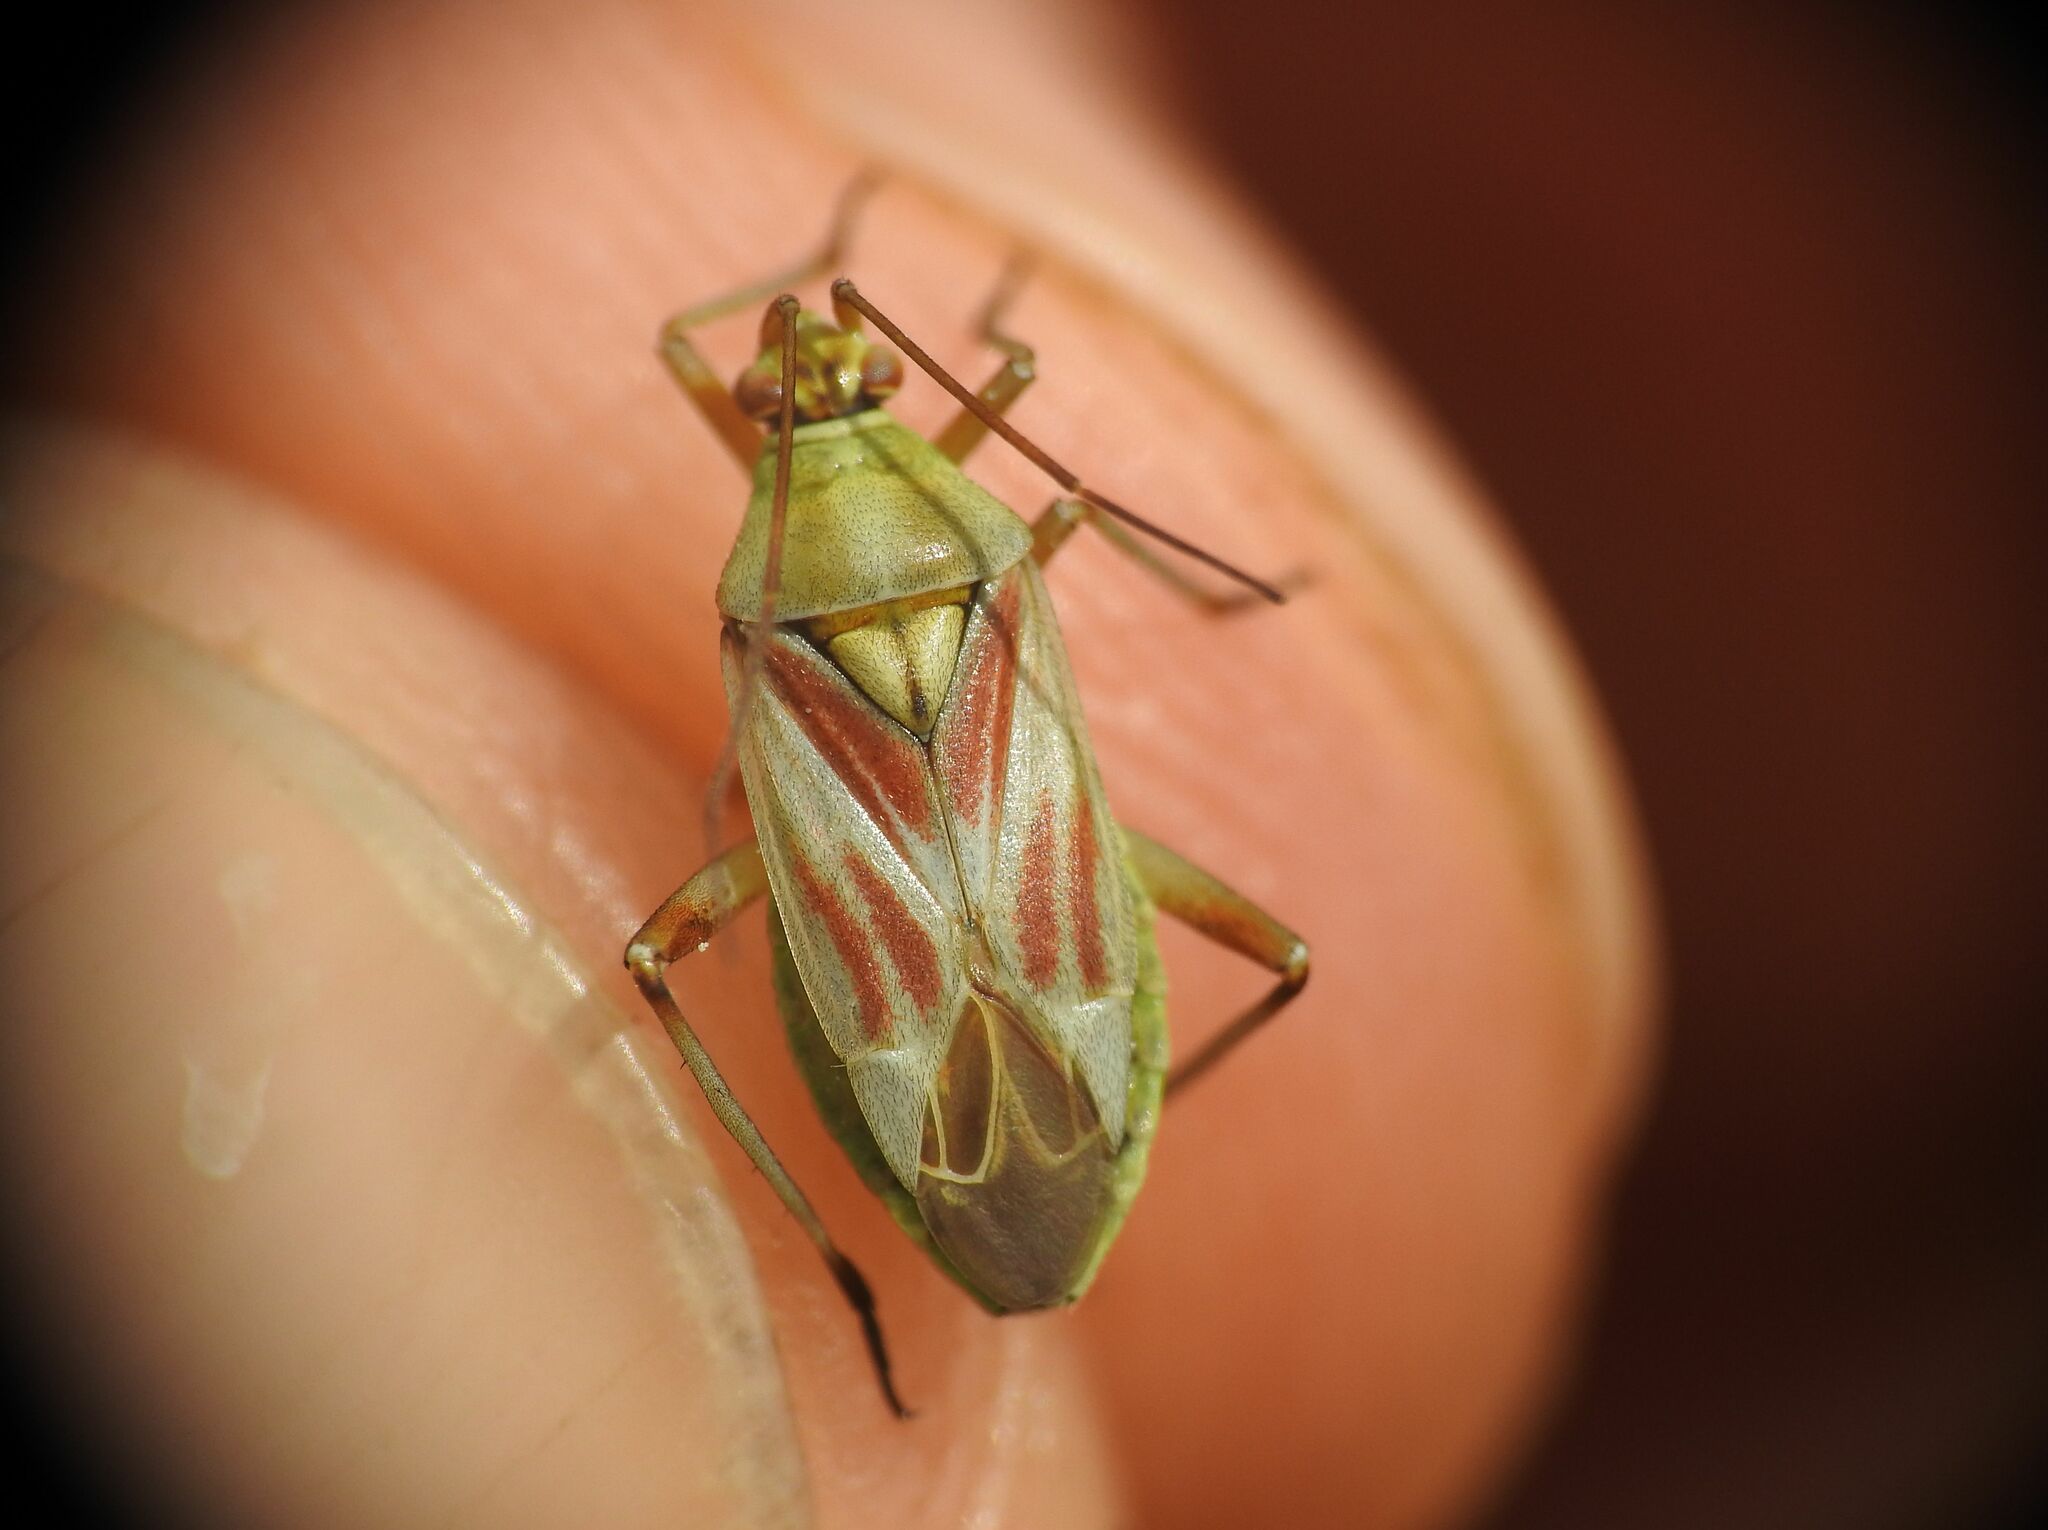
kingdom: Animalia
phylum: Arthropoda
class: Insecta
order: Hemiptera
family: Miridae
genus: Calocoris
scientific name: Calocoris roseomaculatus
